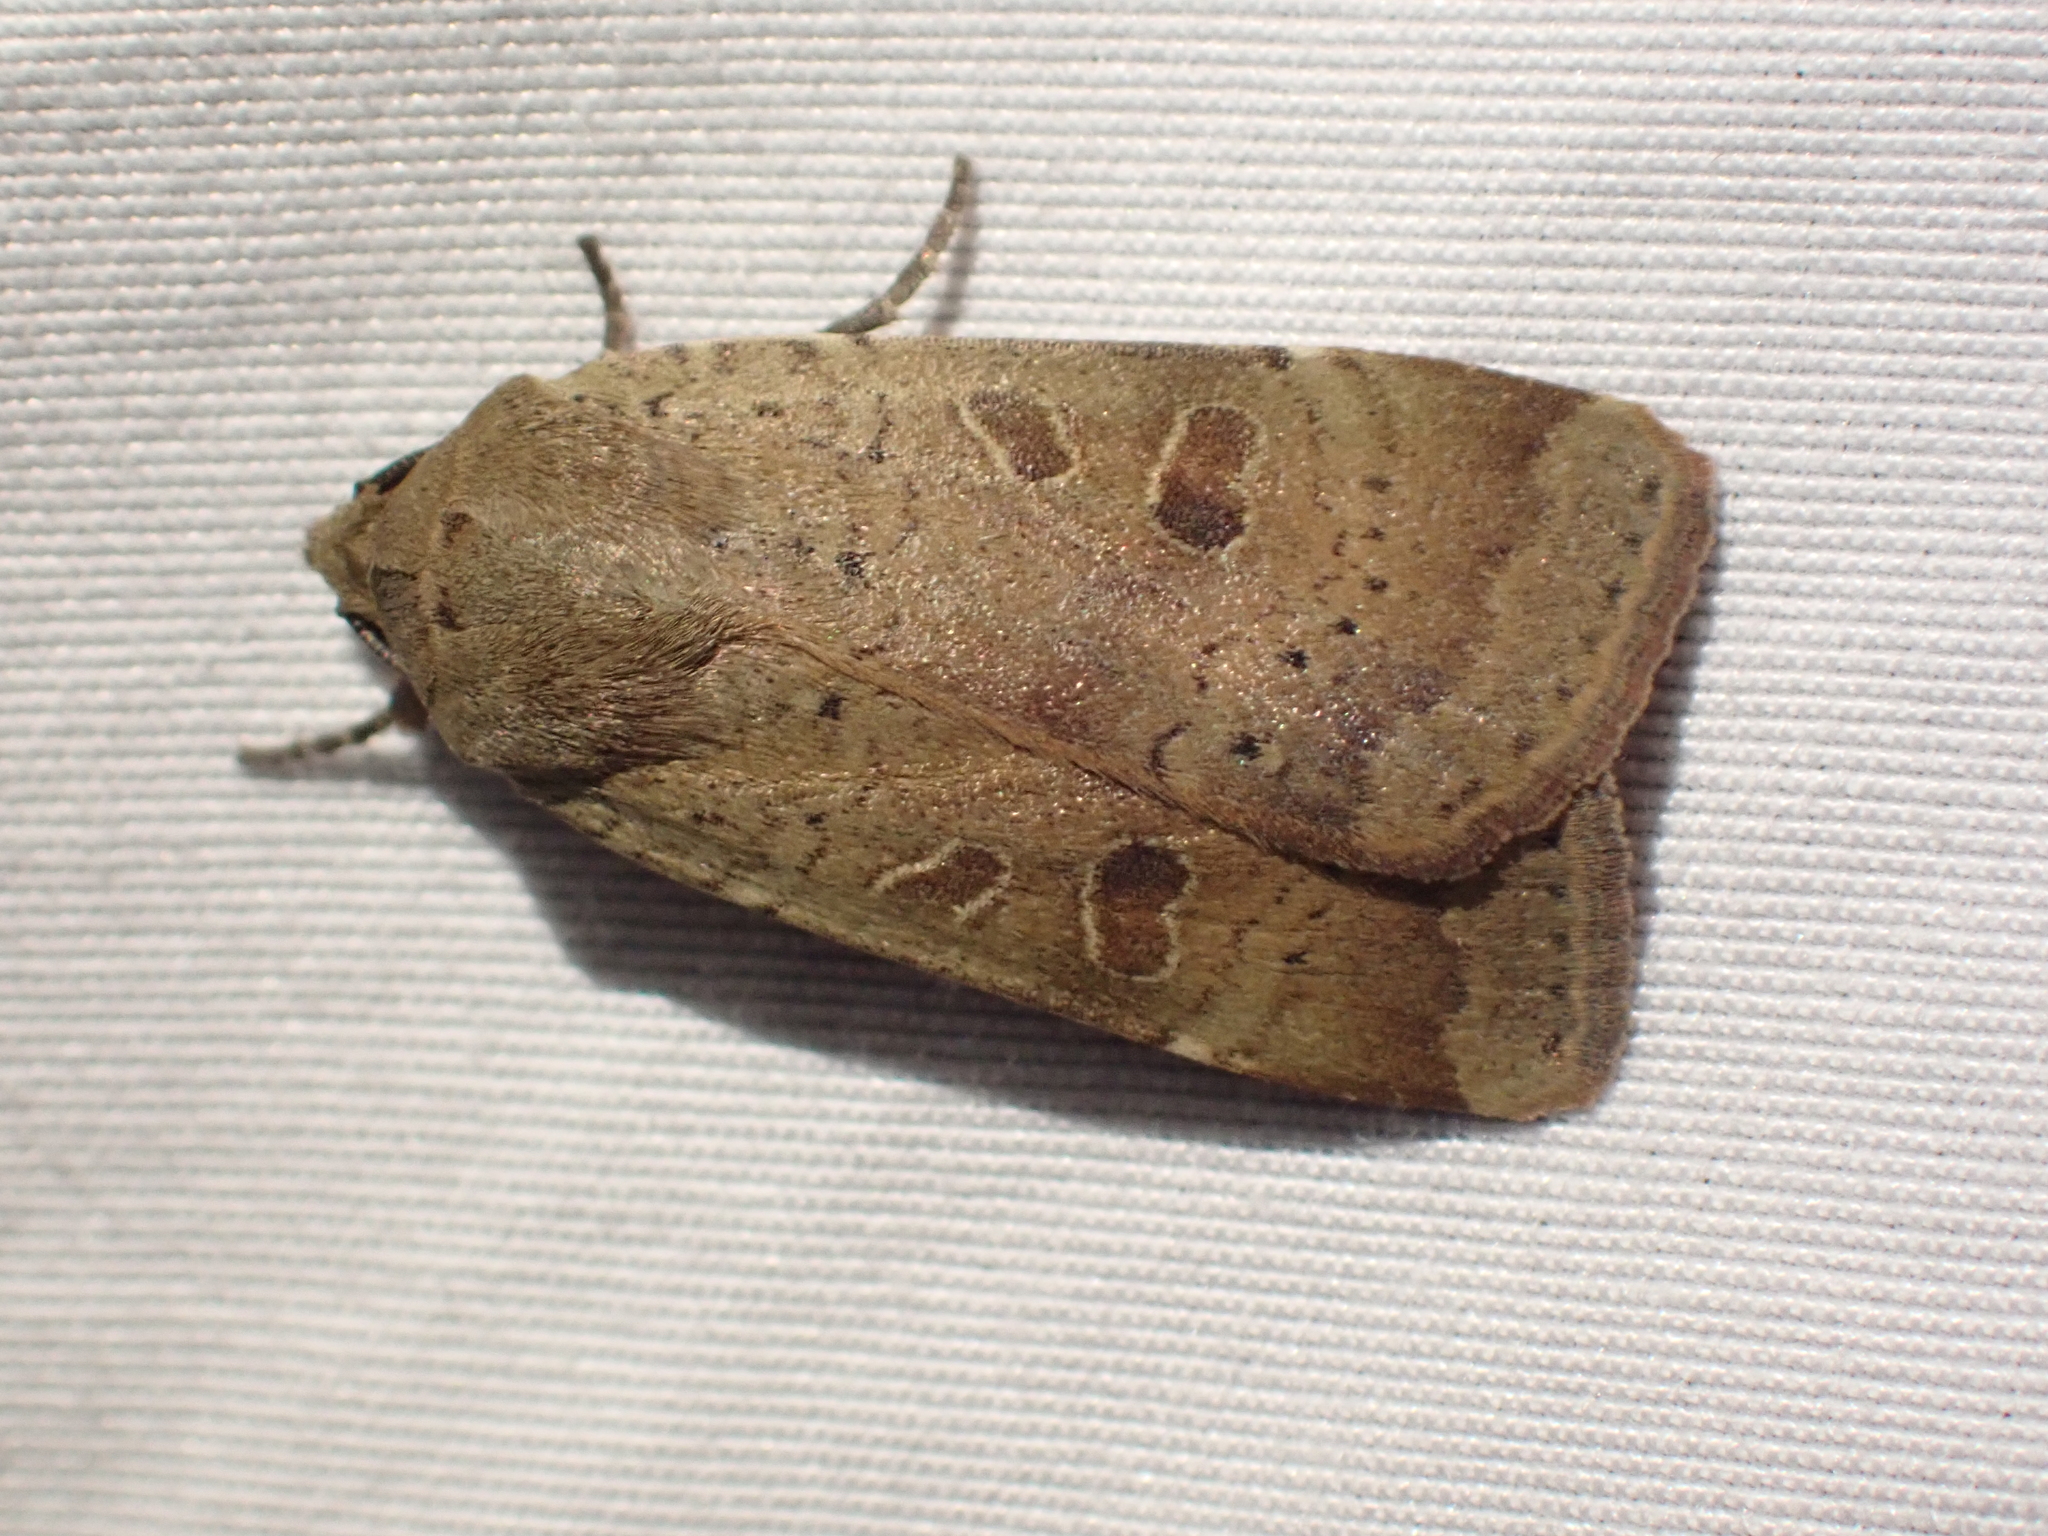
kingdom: Animalia
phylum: Arthropoda
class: Insecta
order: Lepidoptera
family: Noctuidae
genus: Noctua
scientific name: Noctua comes
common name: Lesser yellow underwing
